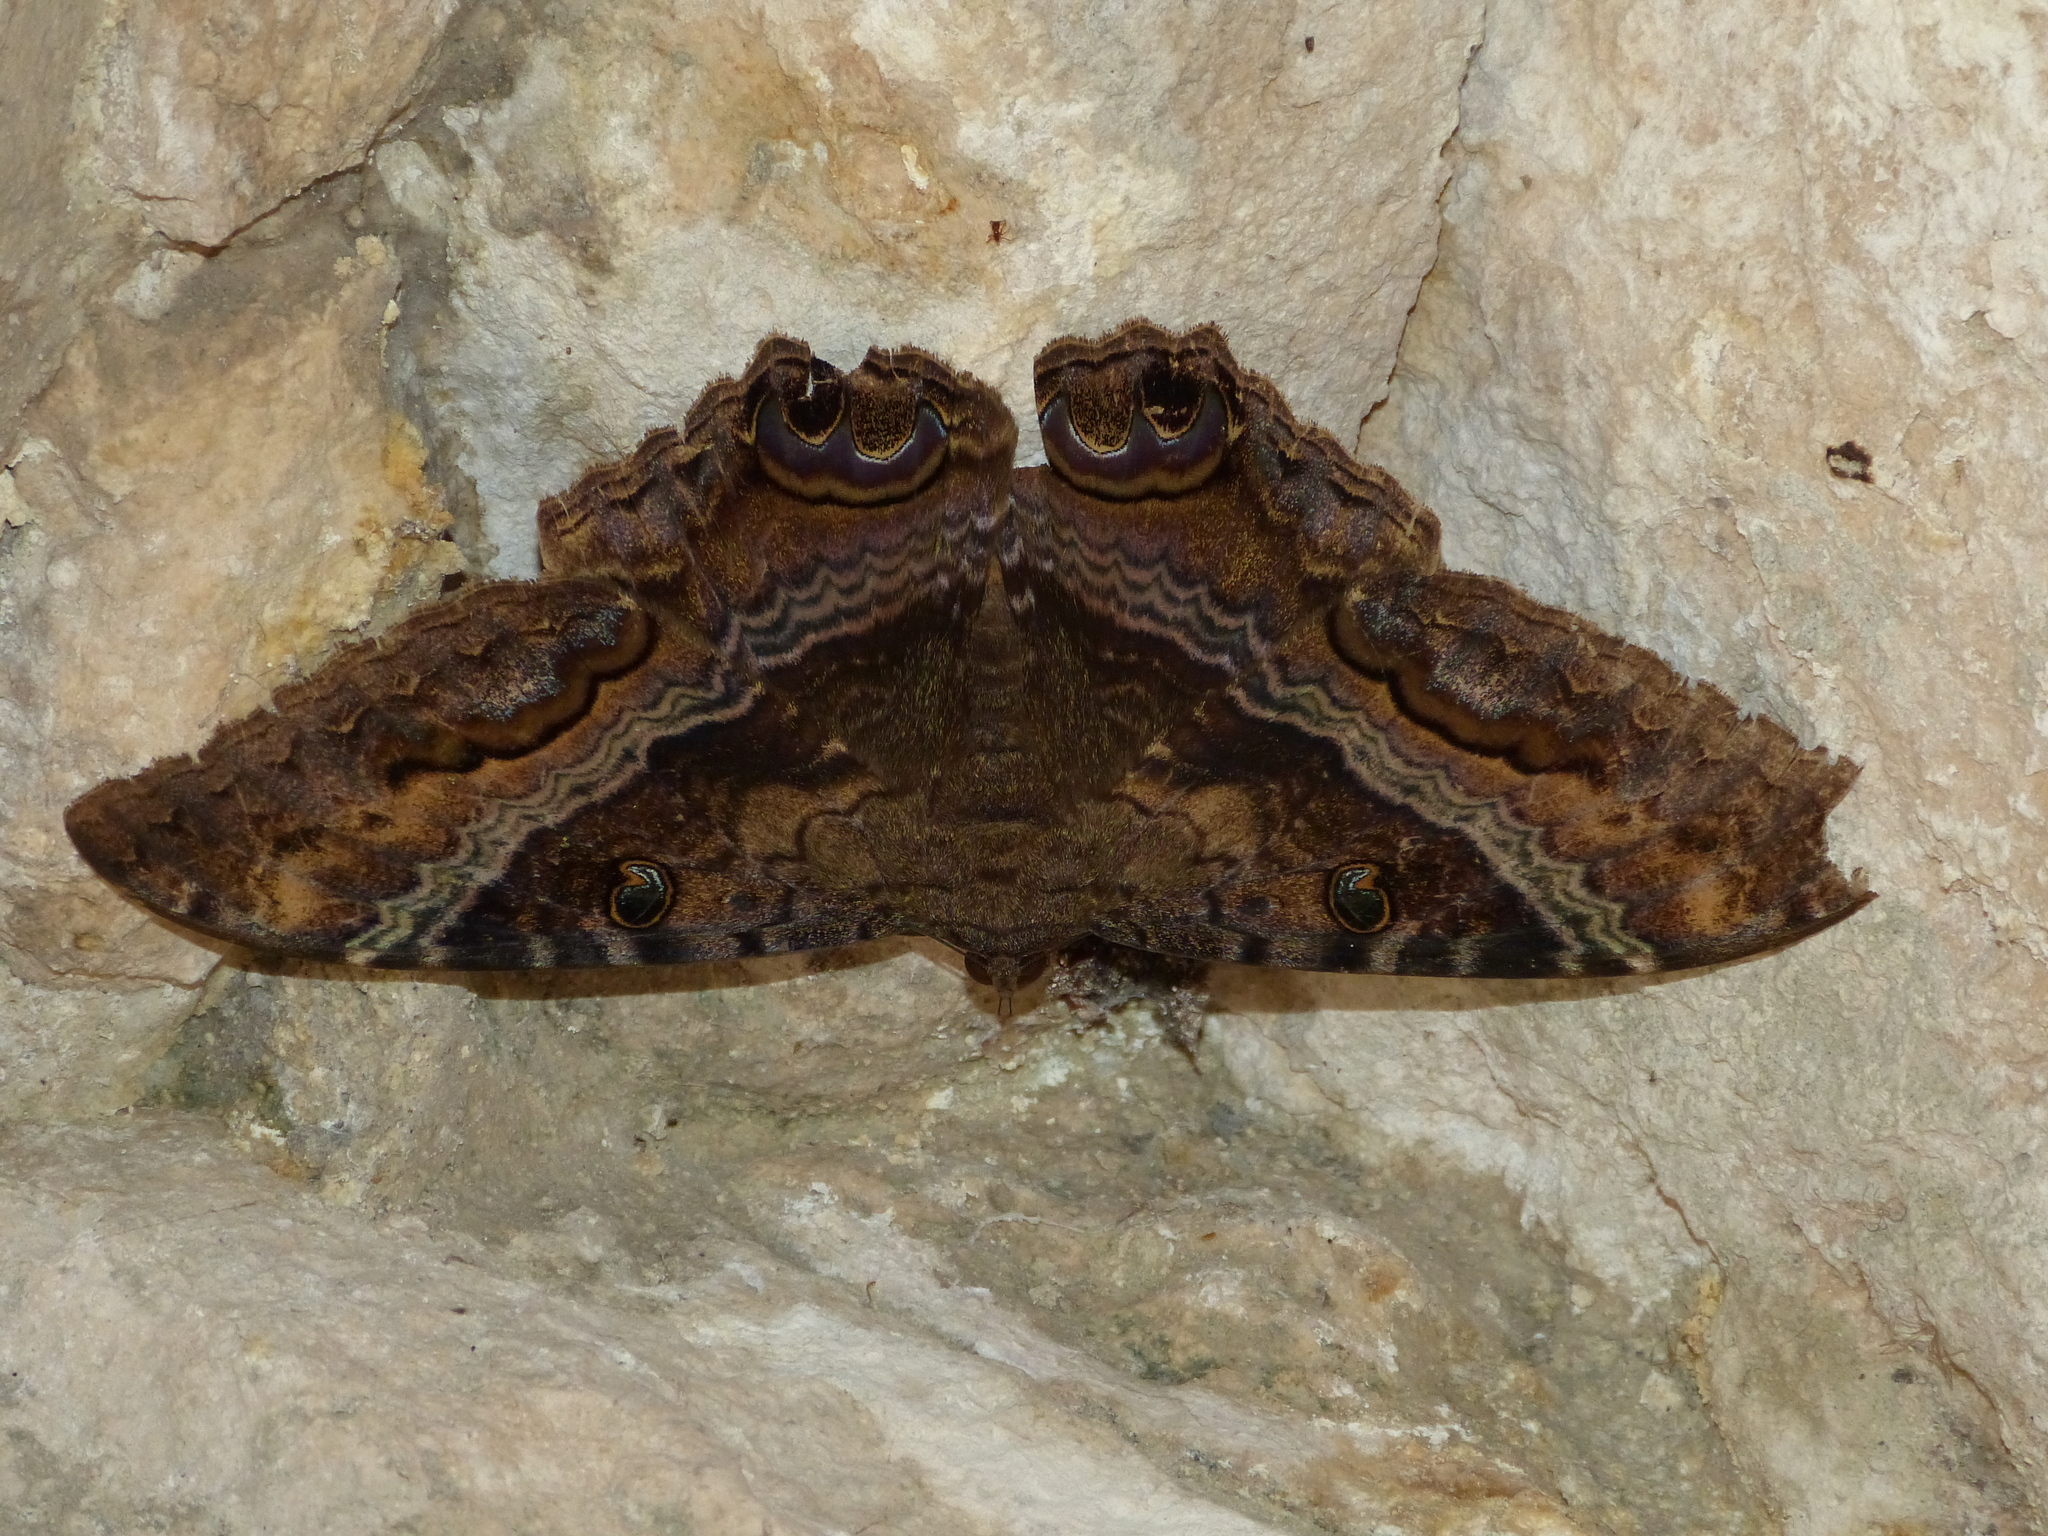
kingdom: Animalia
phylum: Arthropoda
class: Insecta
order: Lepidoptera
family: Erebidae
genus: Ascalapha
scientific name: Ascalapha odorata
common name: Black witch
